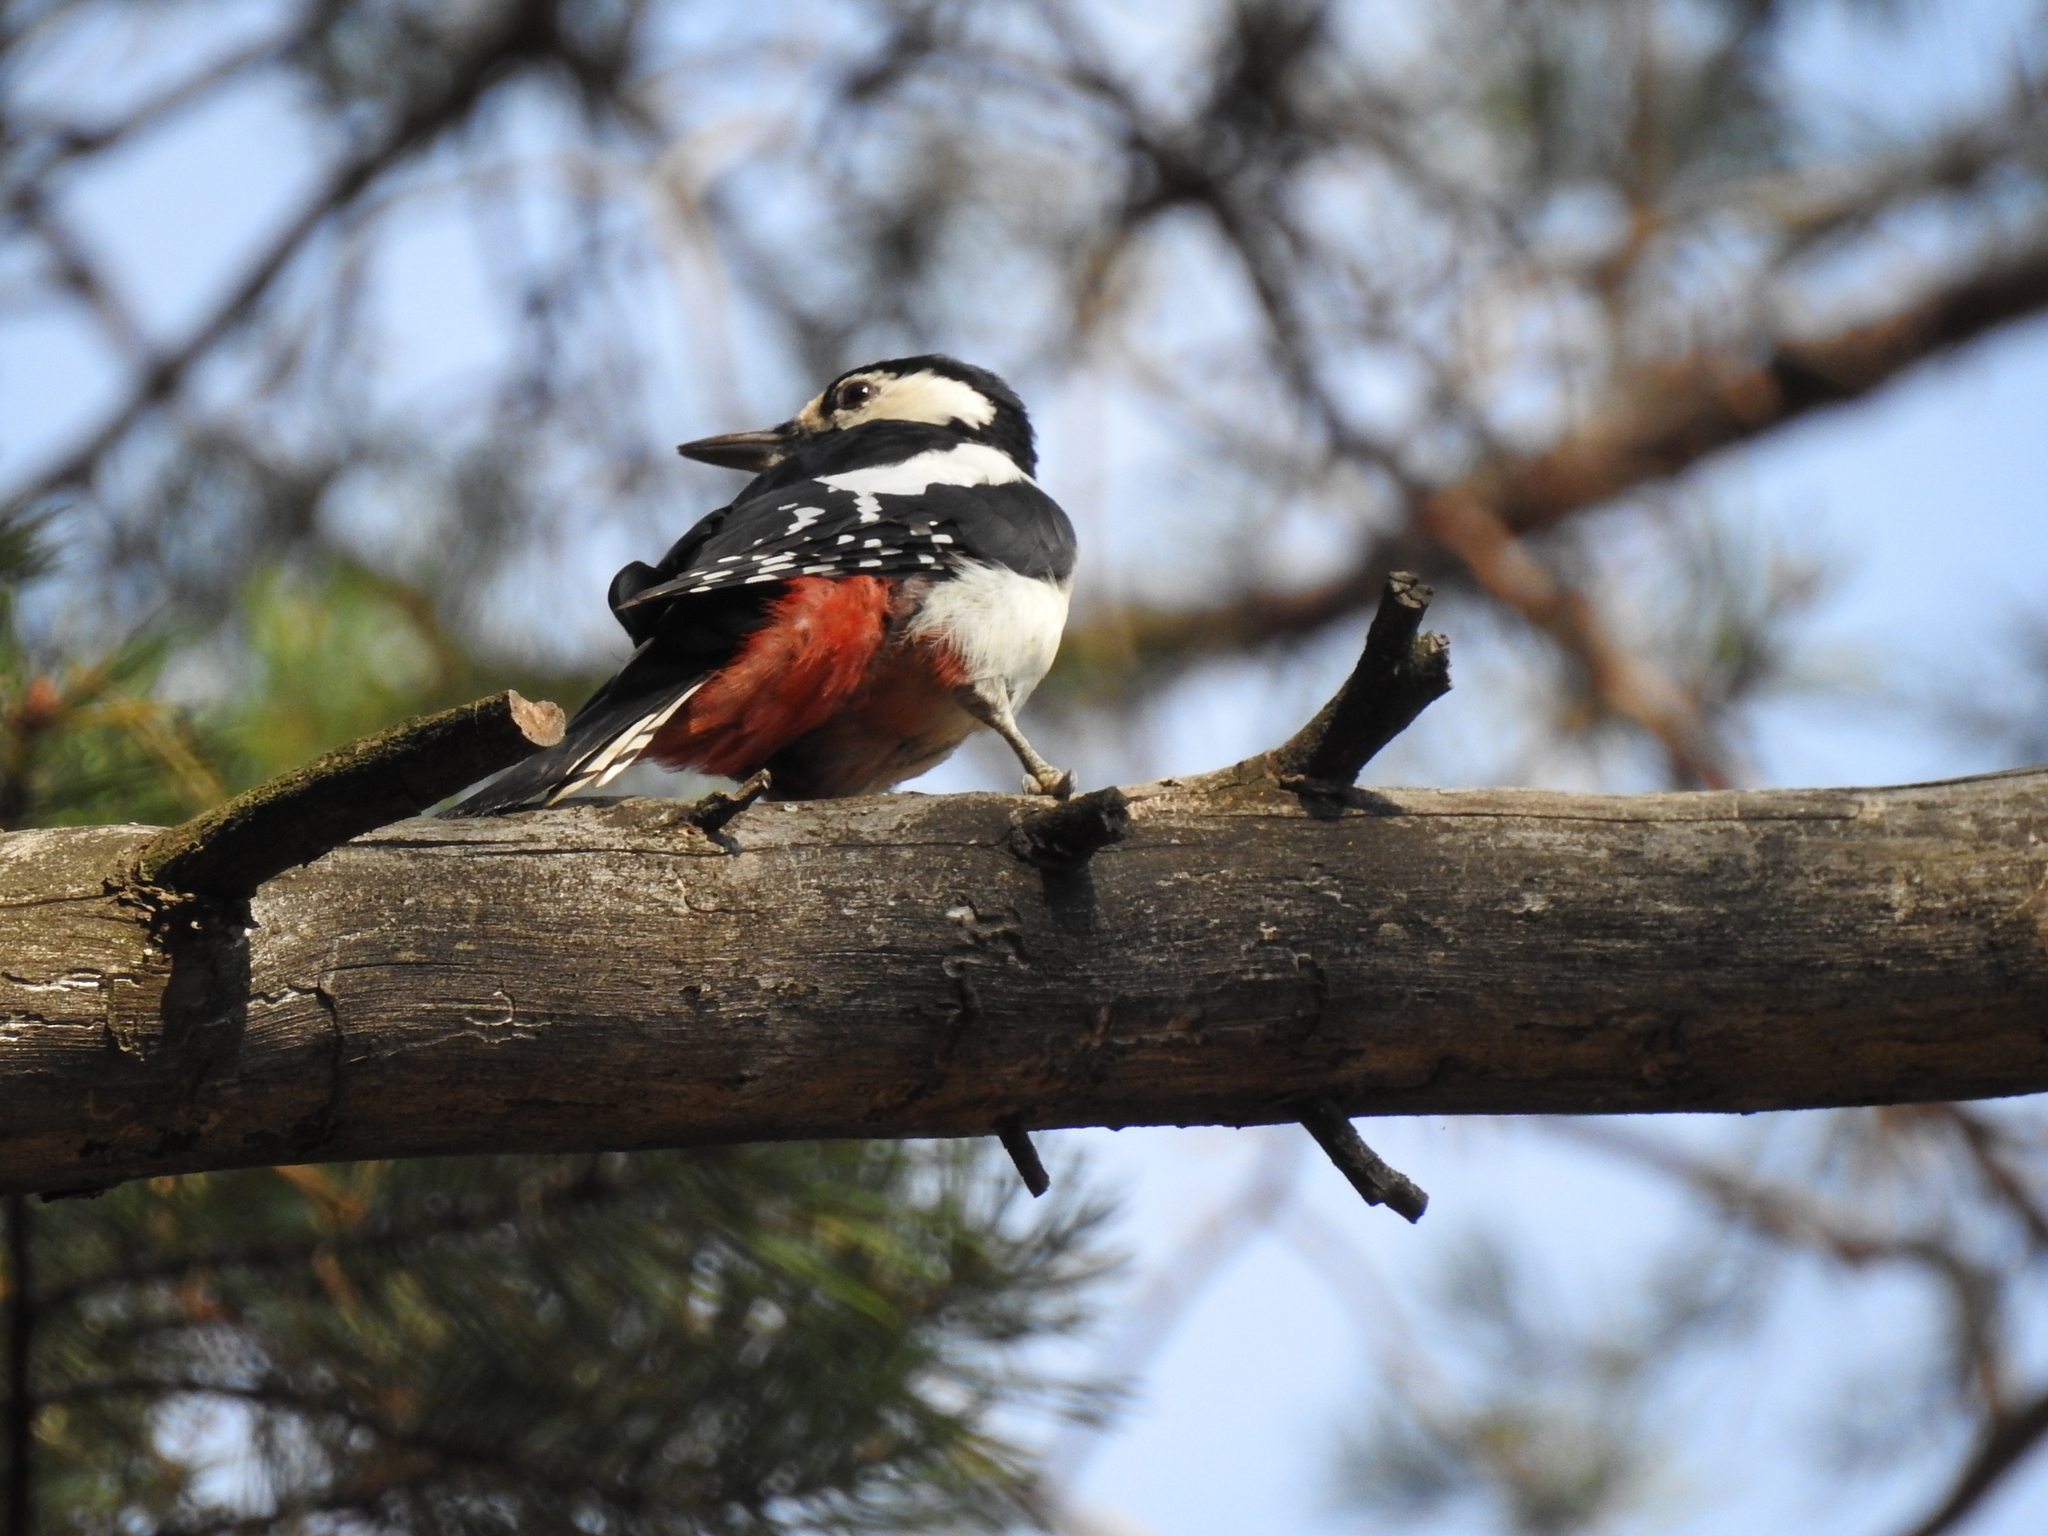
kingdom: Animalia
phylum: Chordata
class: Aves
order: Piciformes
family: Picidae
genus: Dendrocopos
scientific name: Dendrocopos major
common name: Great spotted woodpecker
